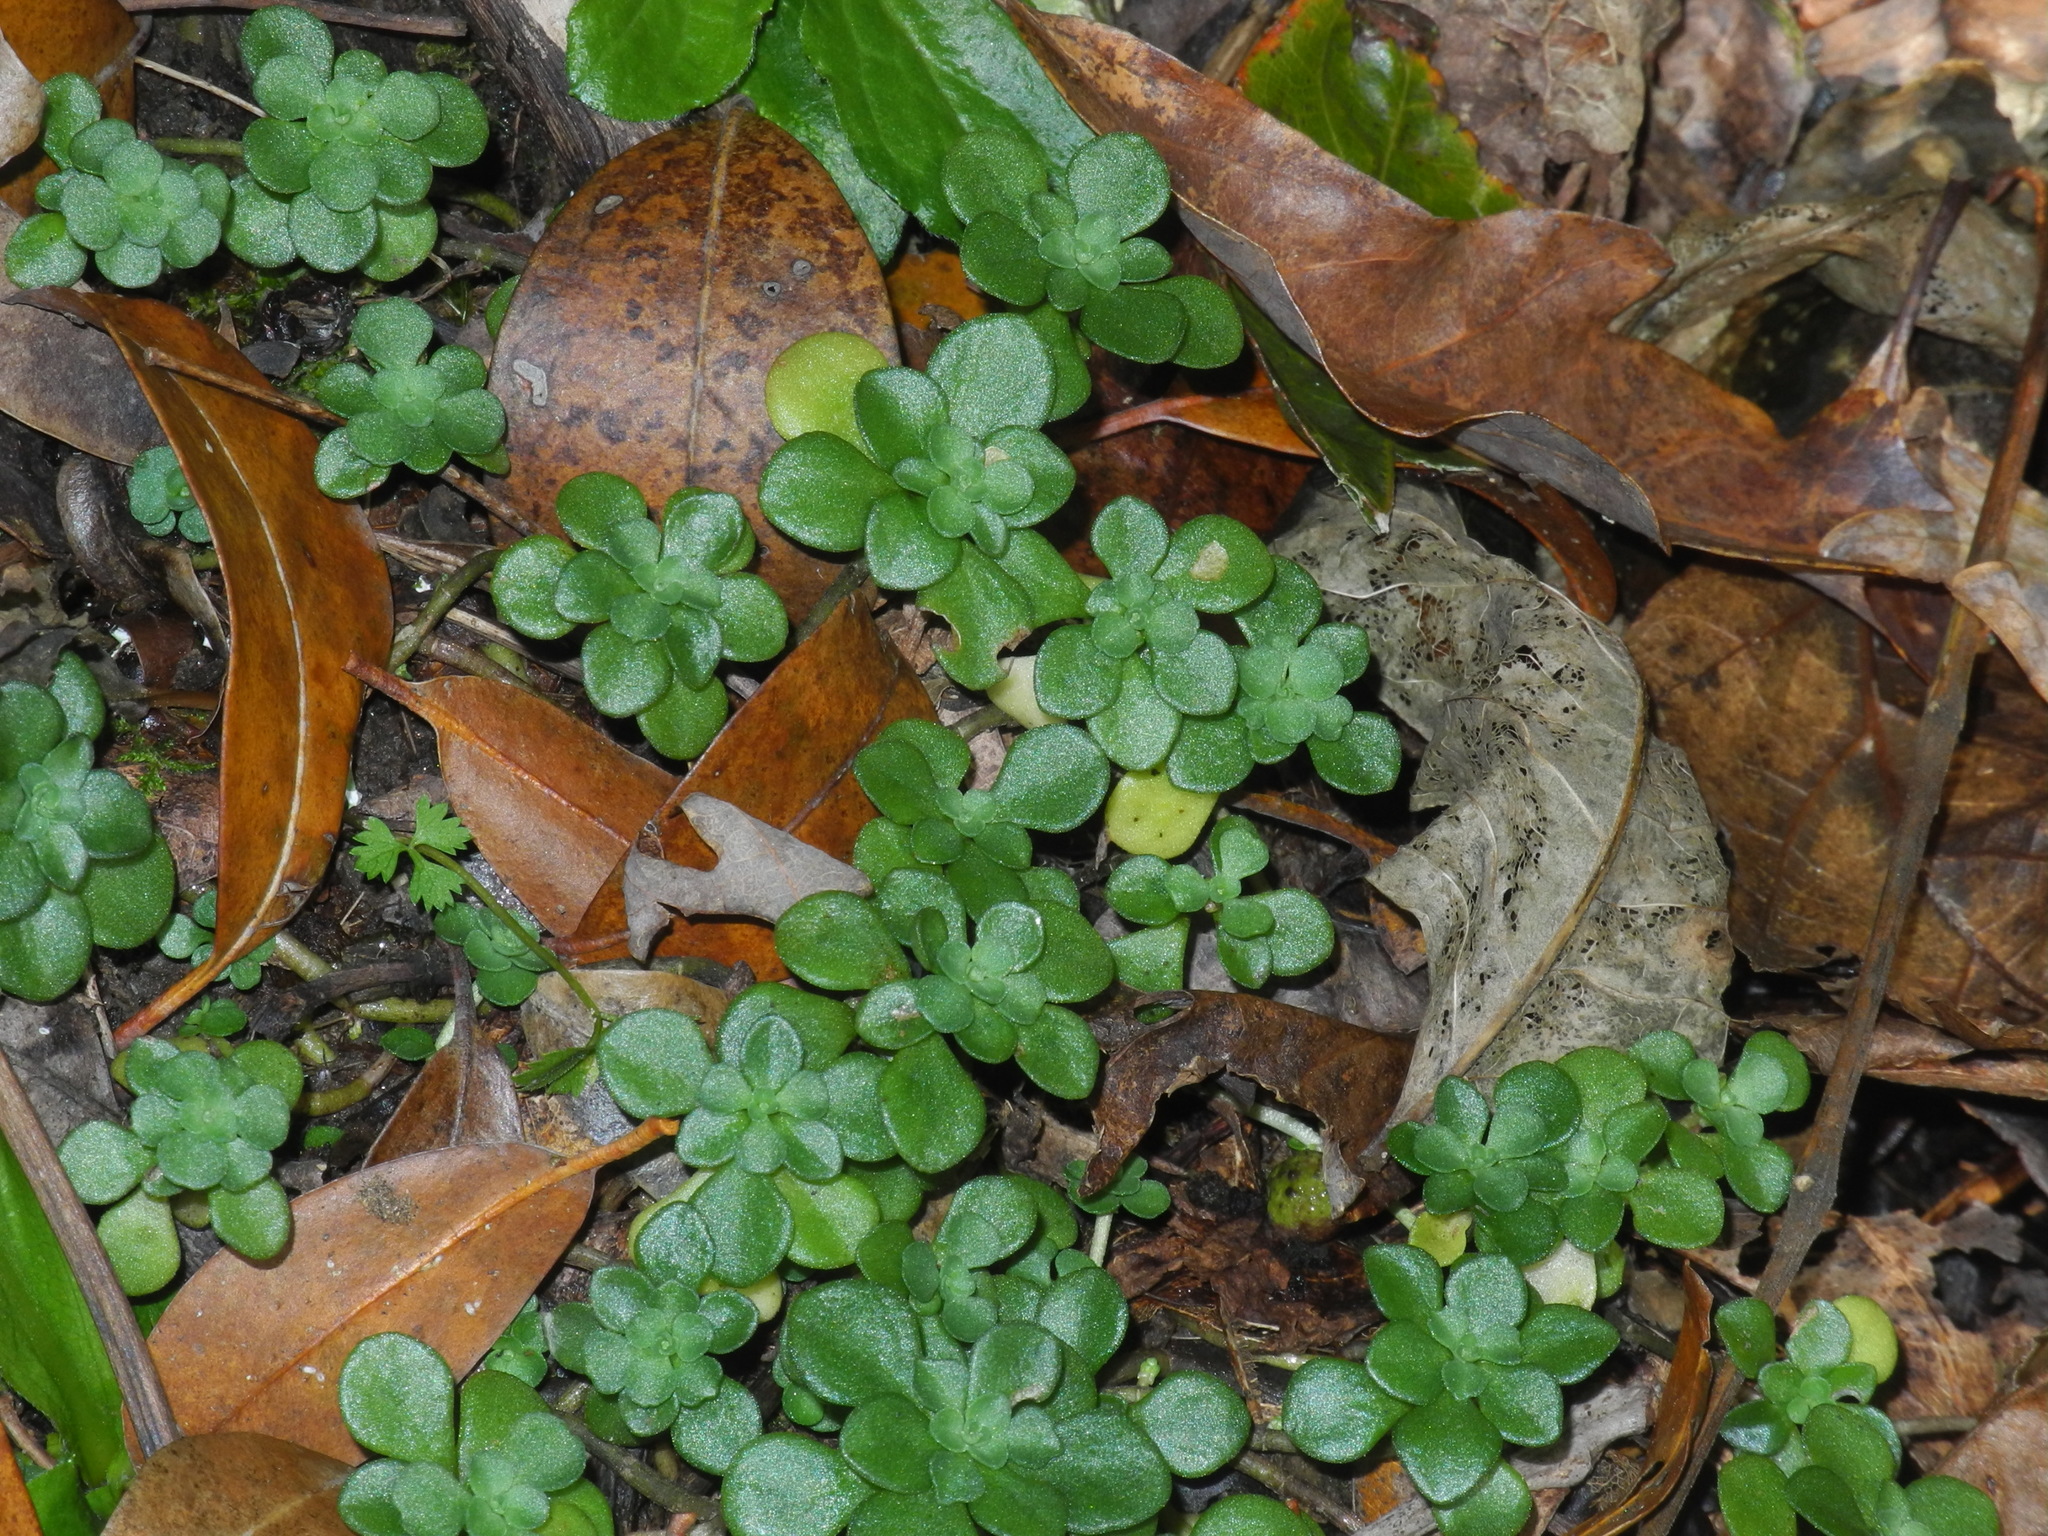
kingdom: Plantae
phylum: Tracheophyta
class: Magnoliopsida
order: Saxifragales
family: Crassulaceae
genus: Sedum
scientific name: Sedum ternatum
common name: Wild stonecrop
